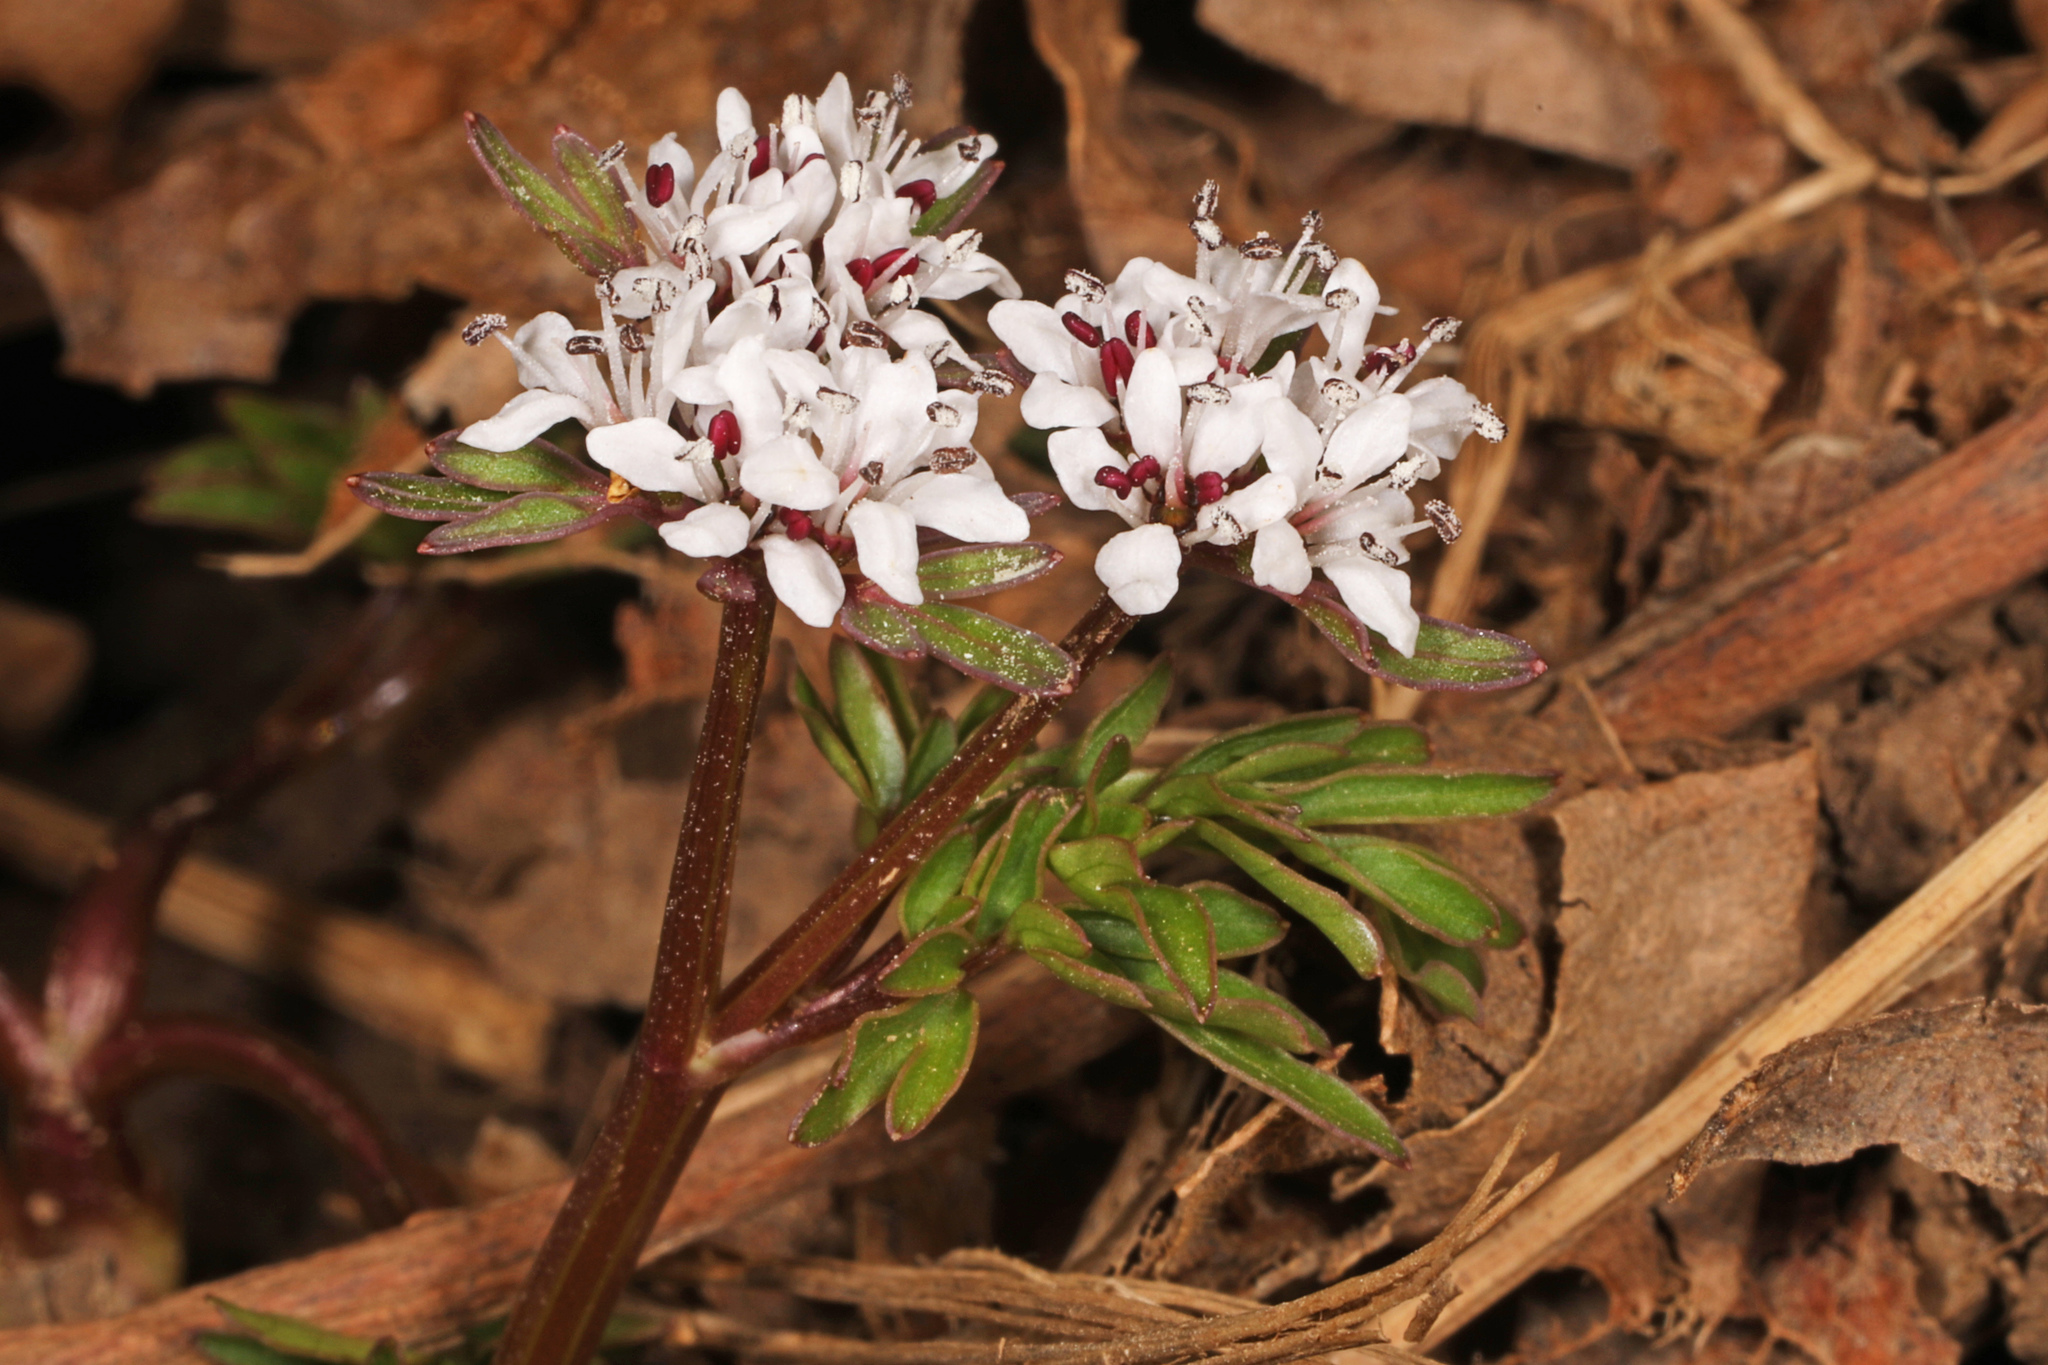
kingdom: Plantae
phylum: Tracheophyta
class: Magnoliopsida
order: Apiales
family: Apiaceae
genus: Erigenia
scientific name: Erigenia bulbosa
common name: Pepper-and-salt
